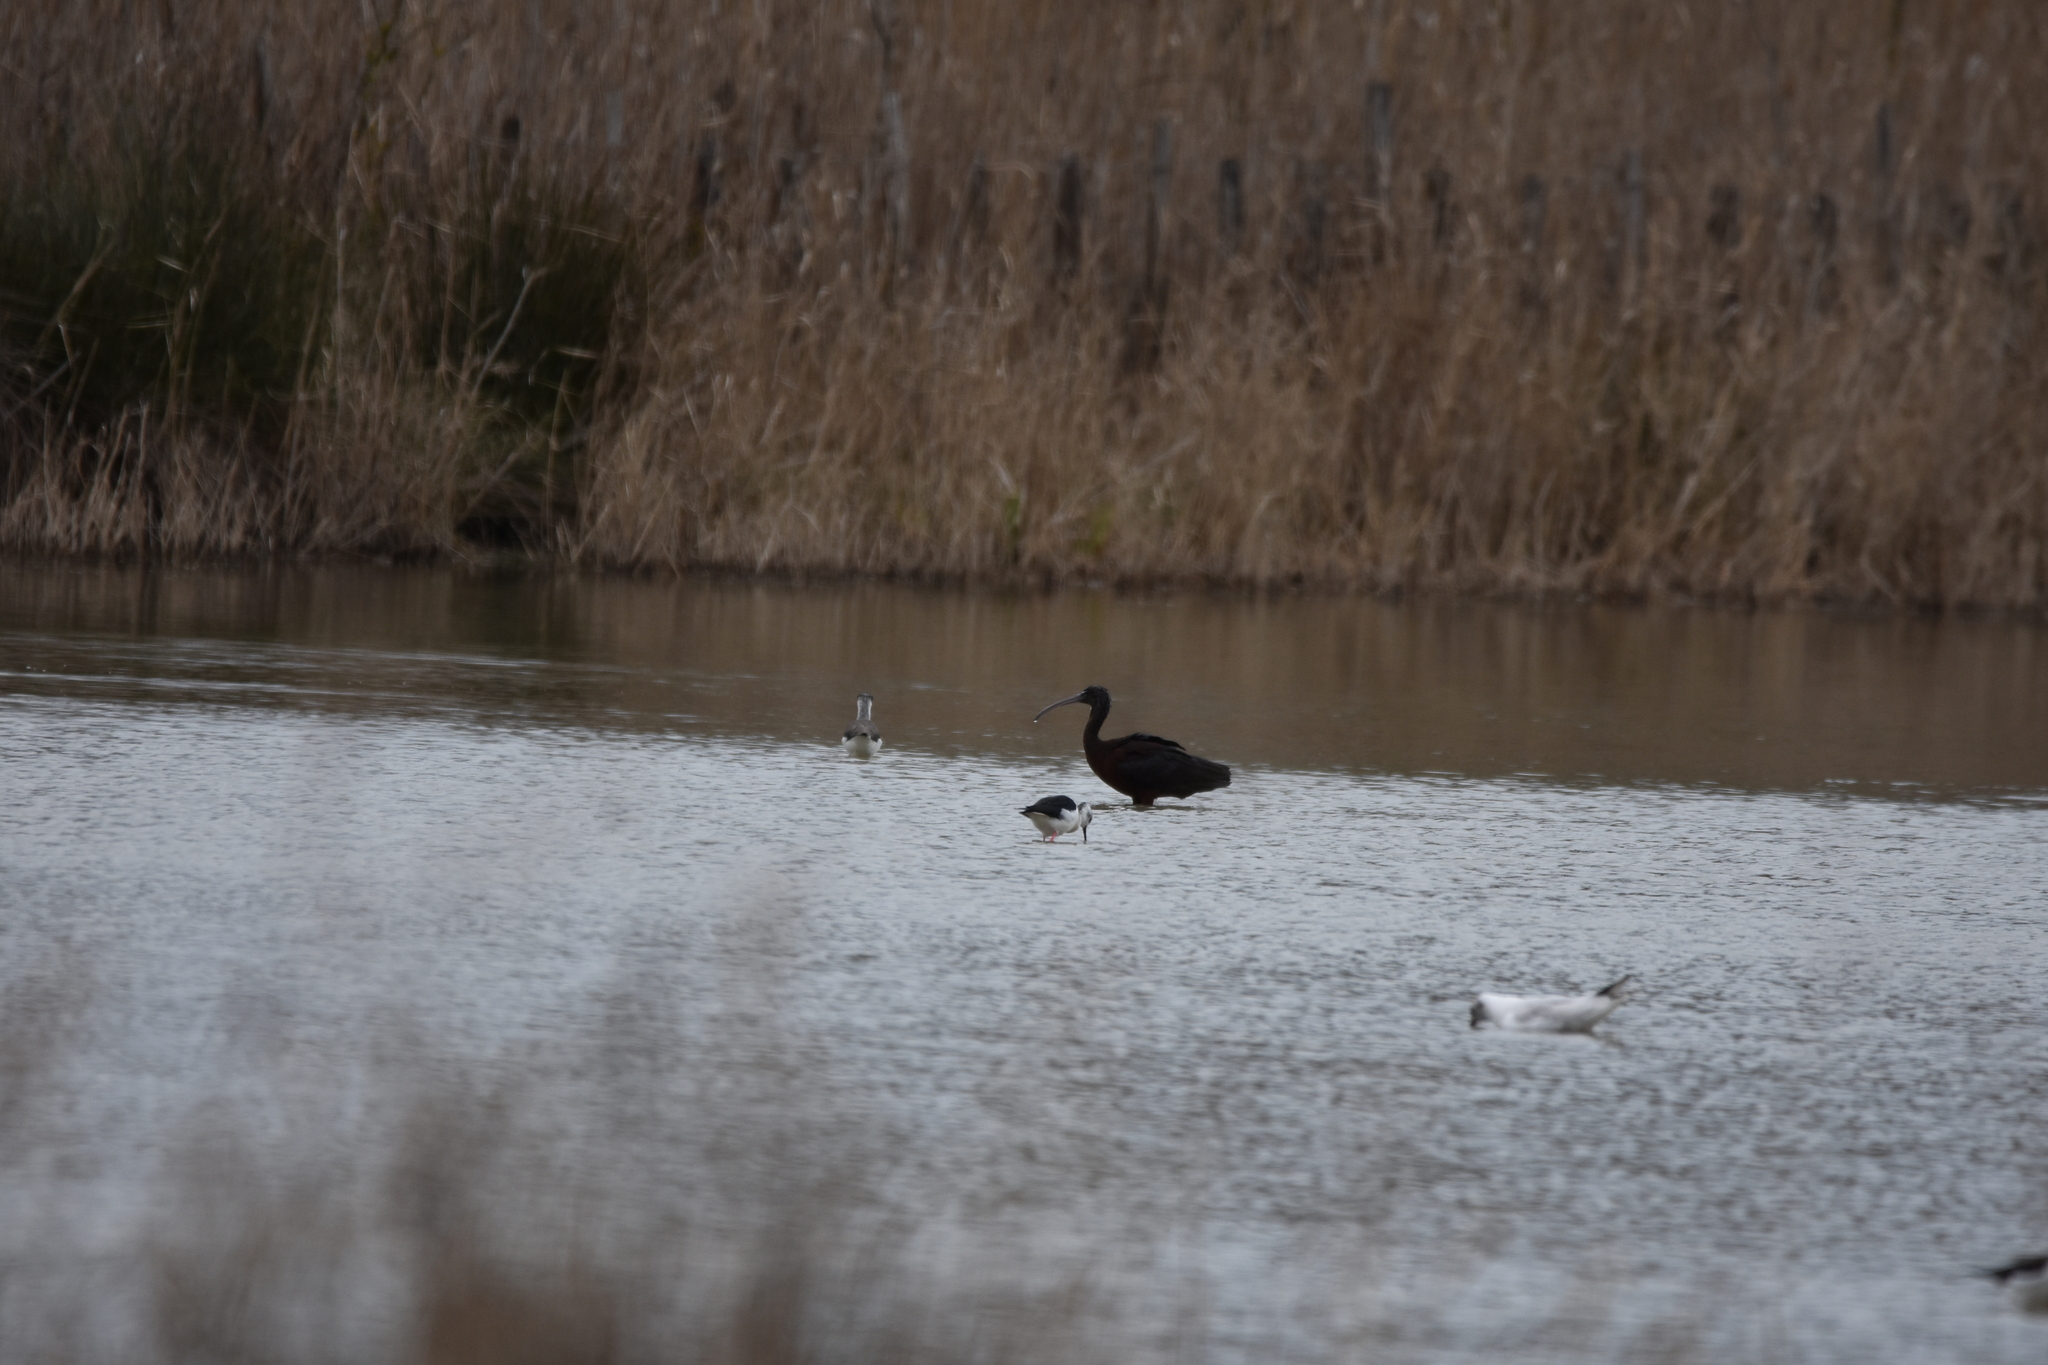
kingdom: Animalia
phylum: Chordata
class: Aves
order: Pelecaniformes
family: Threskiornithidae
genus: Plegadis
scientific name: Plegadis falcinellus
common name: Glossy ibis
